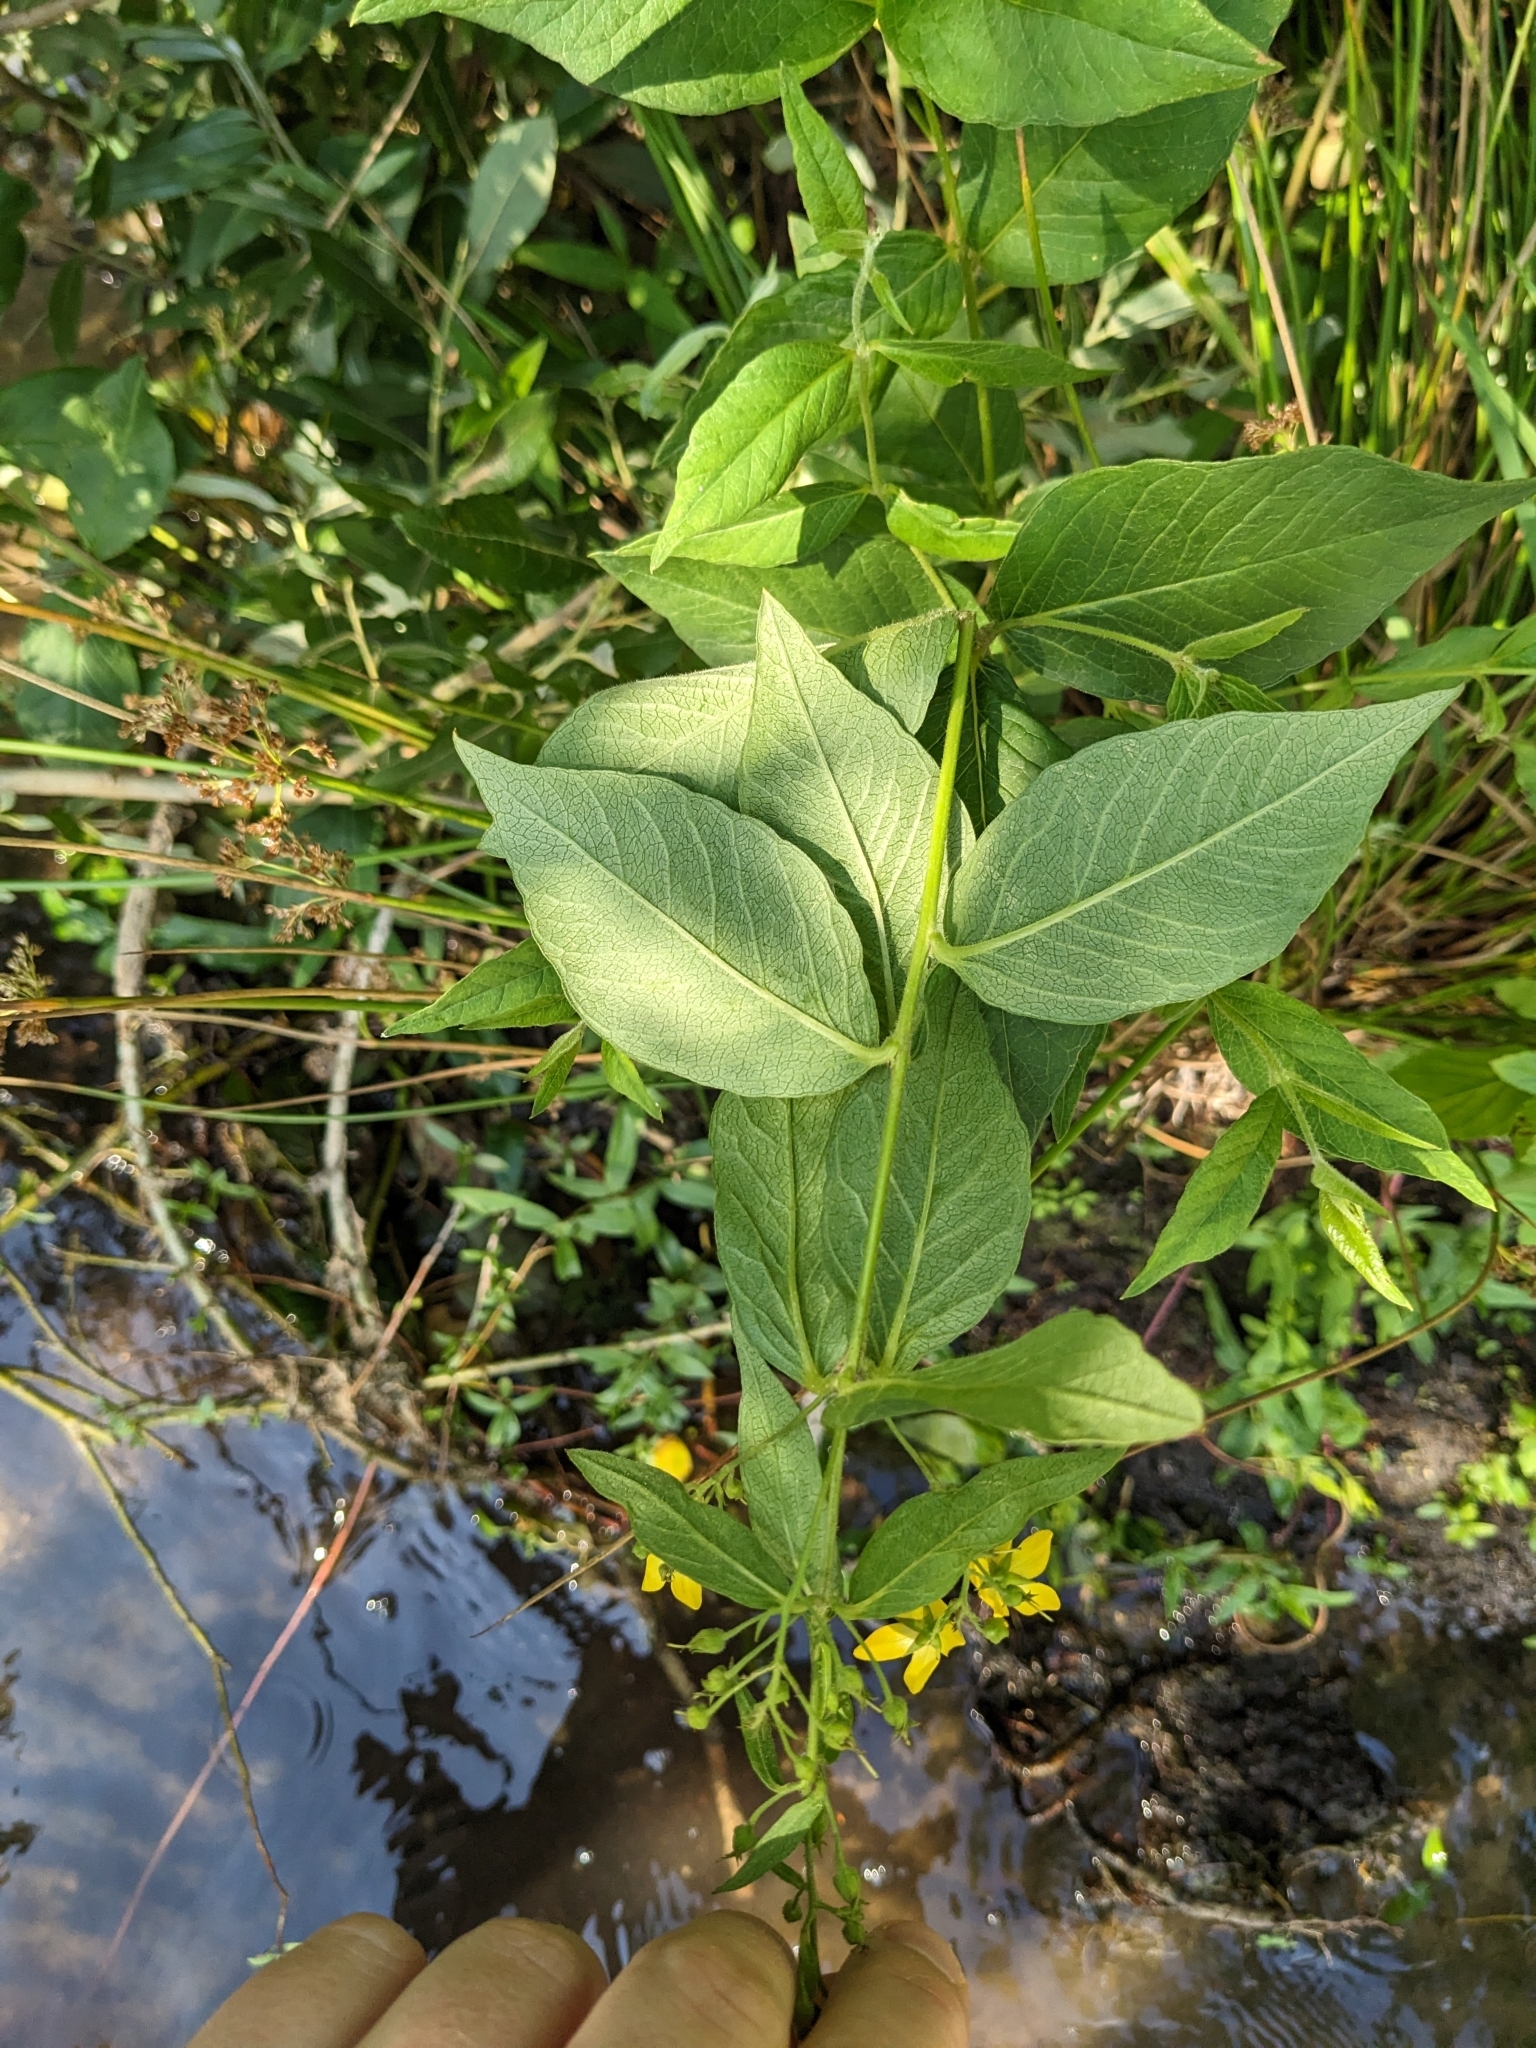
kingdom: Plantae
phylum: Tracheophyta
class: Magnoliopsida
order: Ericales
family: Primulaceae
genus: Lysimachia
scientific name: Lysimachia vulgaris
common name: Yellow loosestrife
